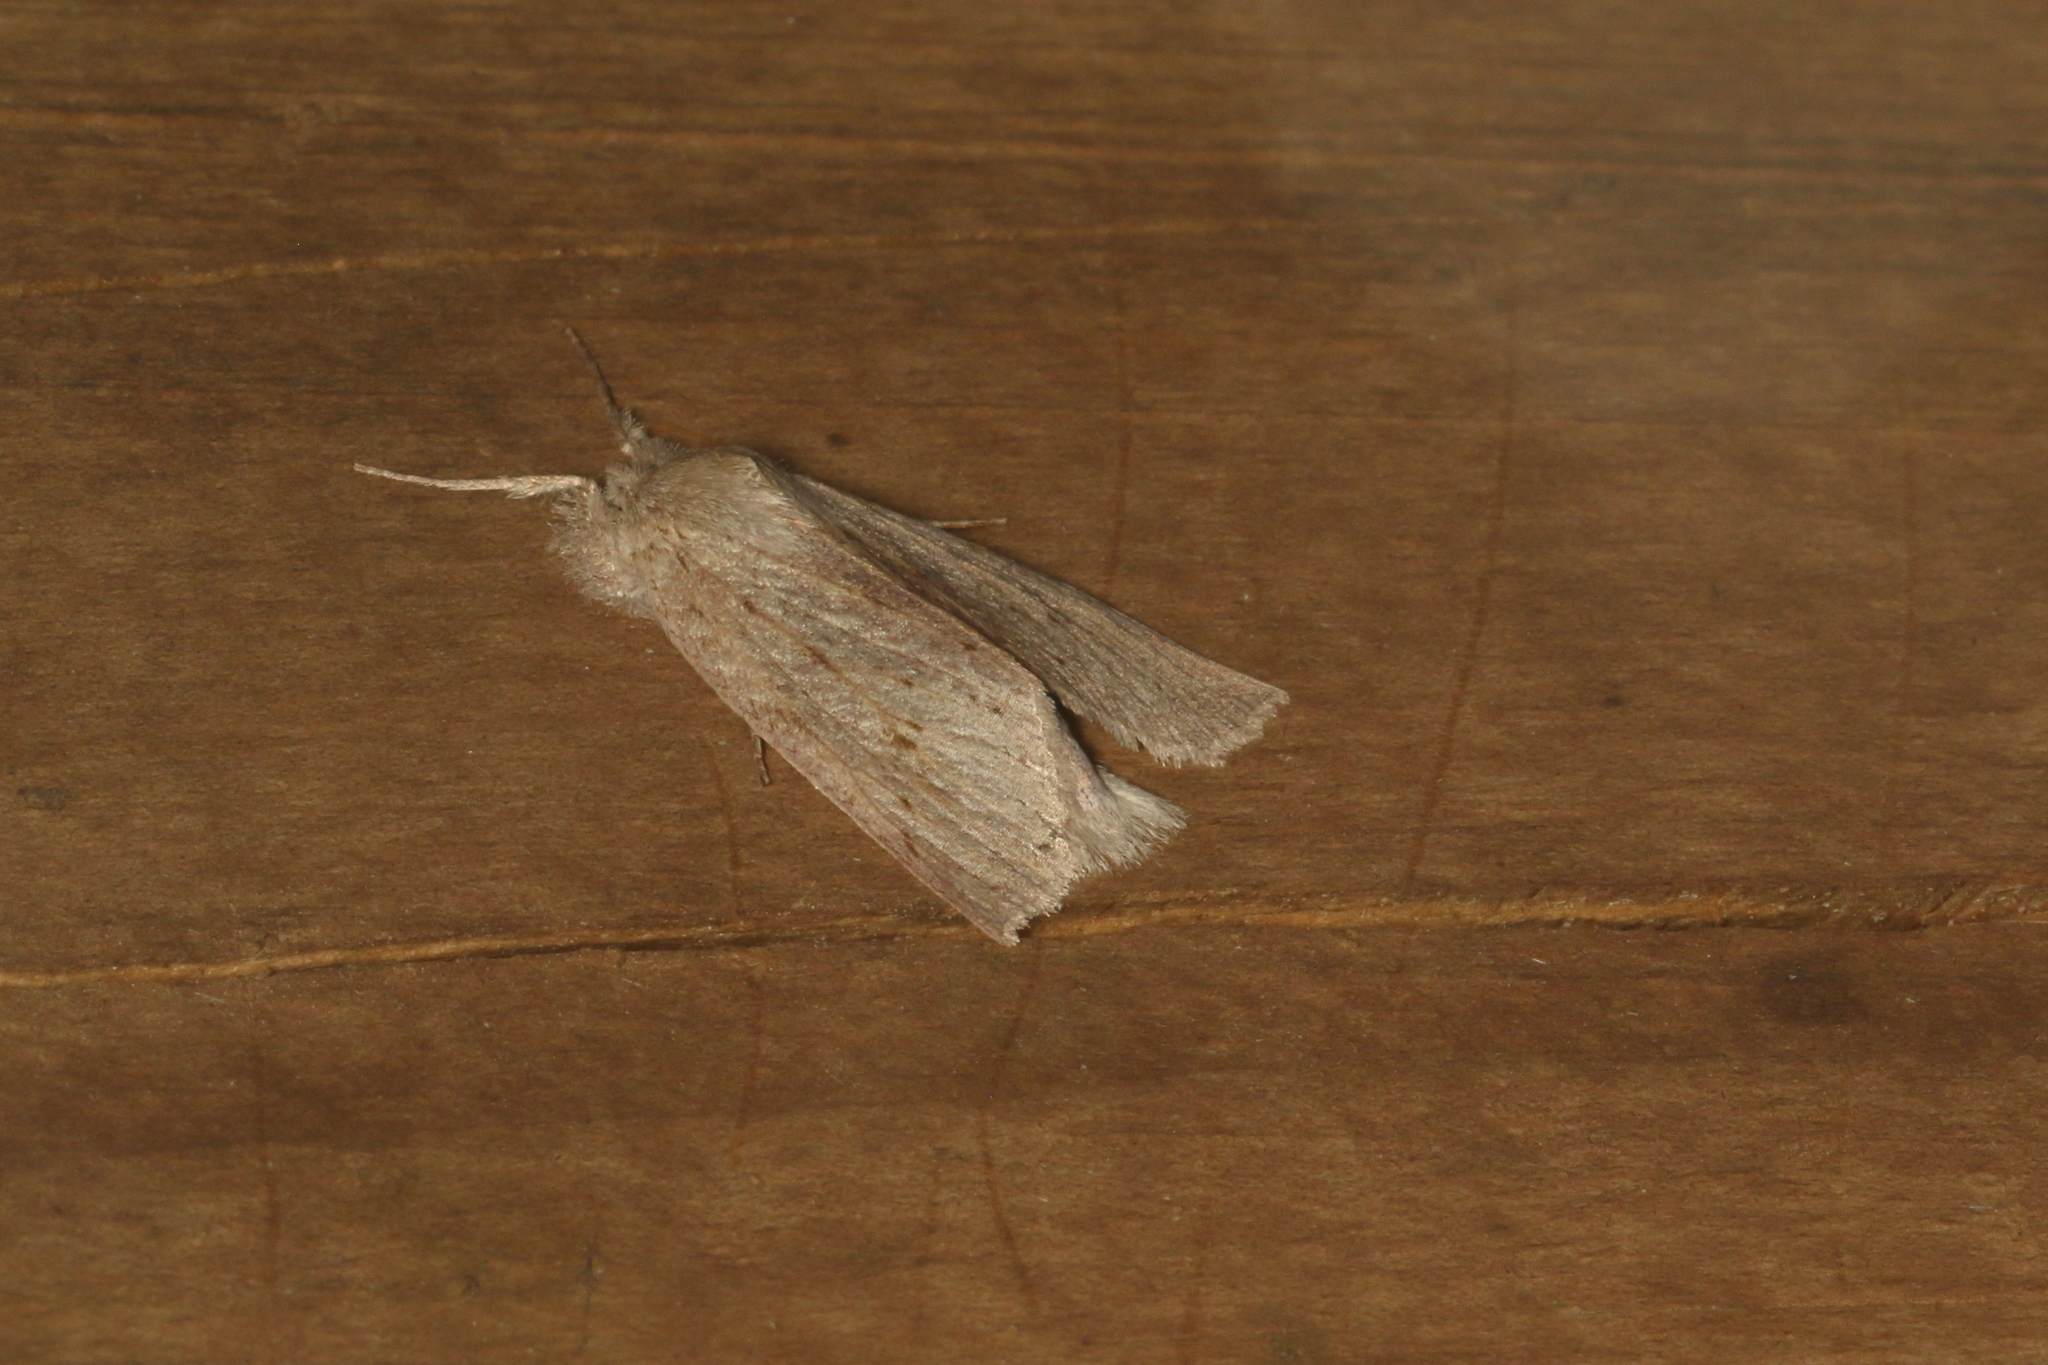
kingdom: Animalia
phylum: Arthropoda
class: Insecta
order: Lepidoptera
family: Geometridae
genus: Declana
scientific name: Declana leptomera
